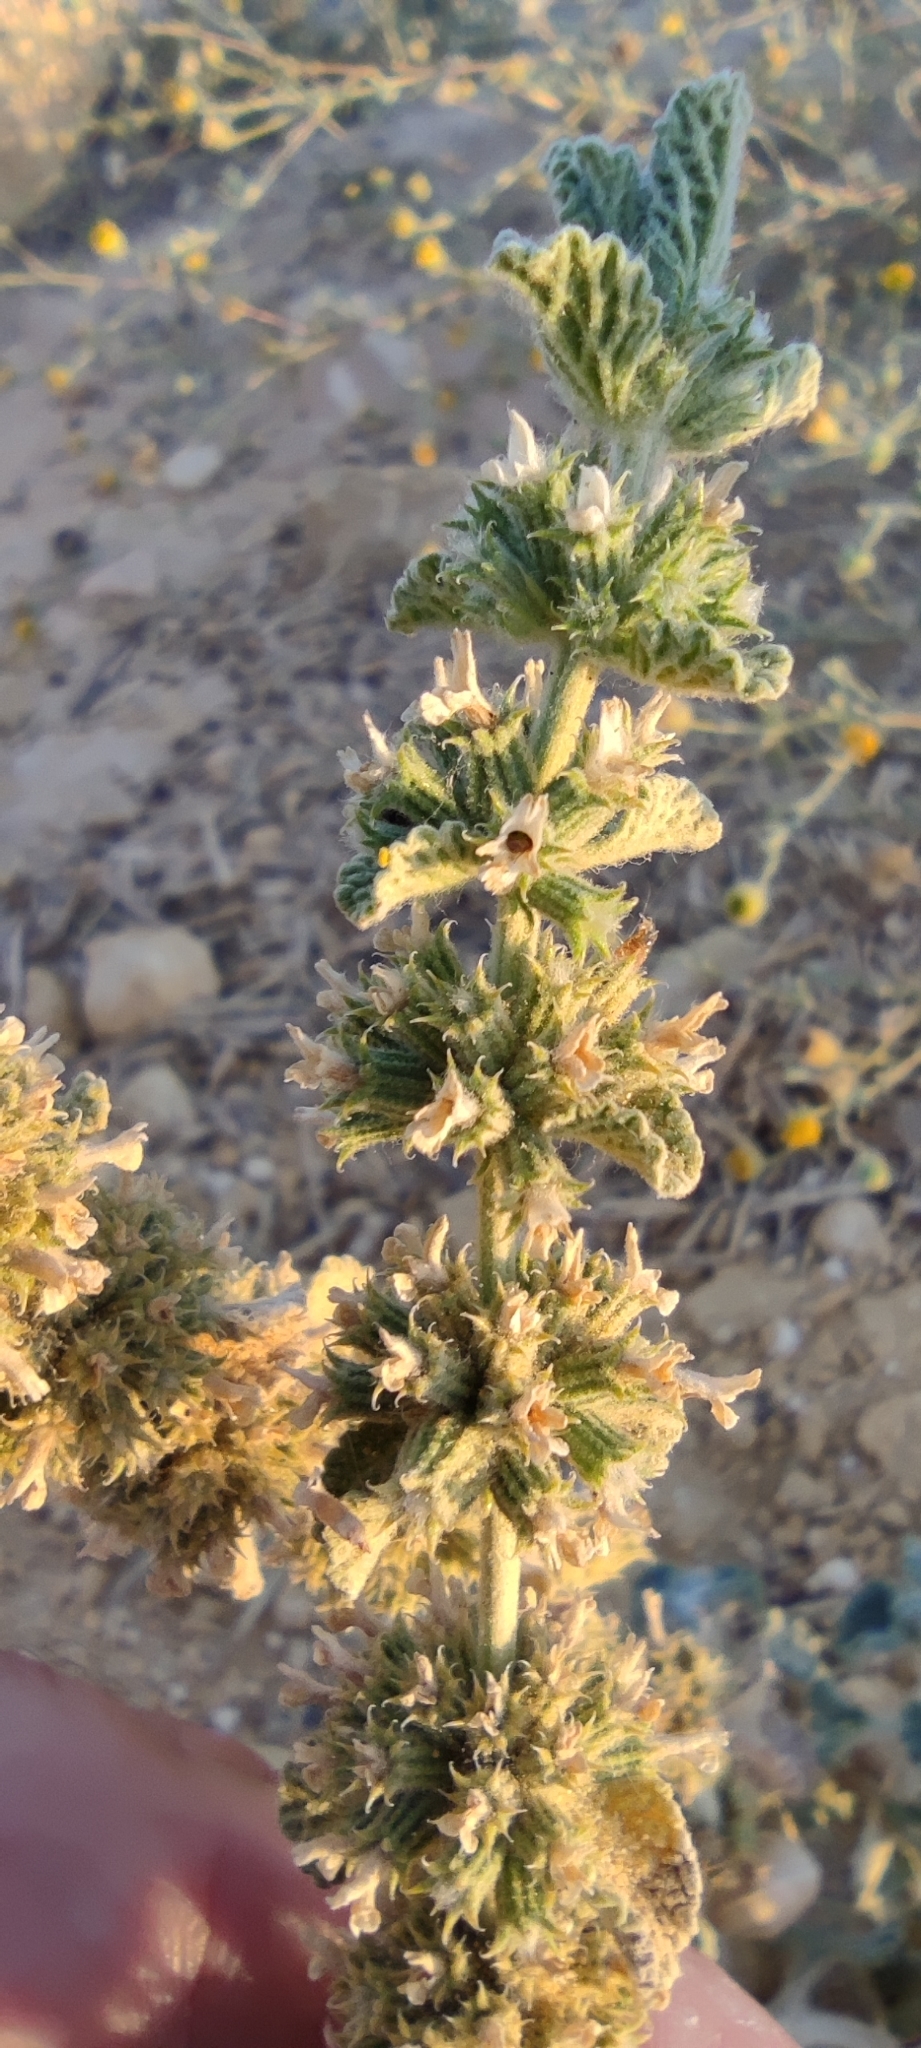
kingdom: Plantae
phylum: Tracheophyta
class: Magnoliopsida
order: Lamiales
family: Lamiaceae
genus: Marrubium
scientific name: Marrubium vulgare
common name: Horehound
